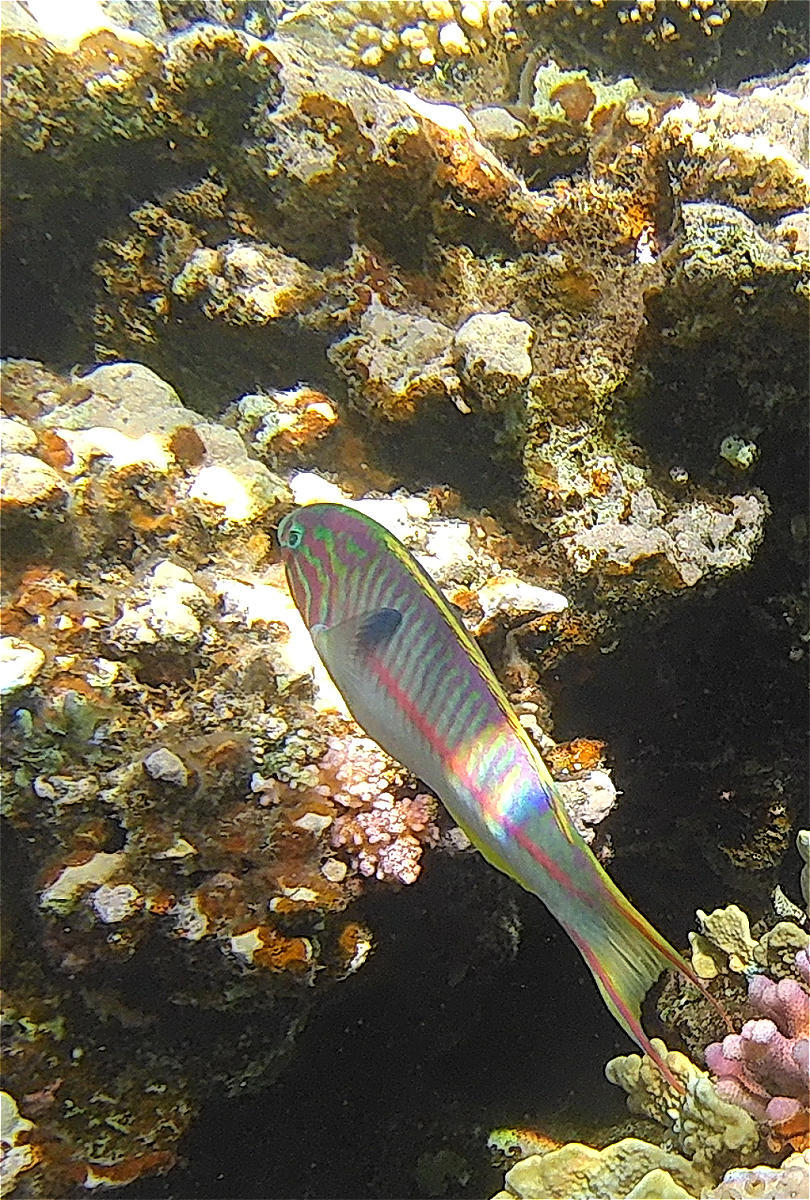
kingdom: Animalia
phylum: Chordata
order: Perciformes
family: Labridae
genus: Thalassoma
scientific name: Thalassoma rueppellii
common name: Klunzinger's wrasse
